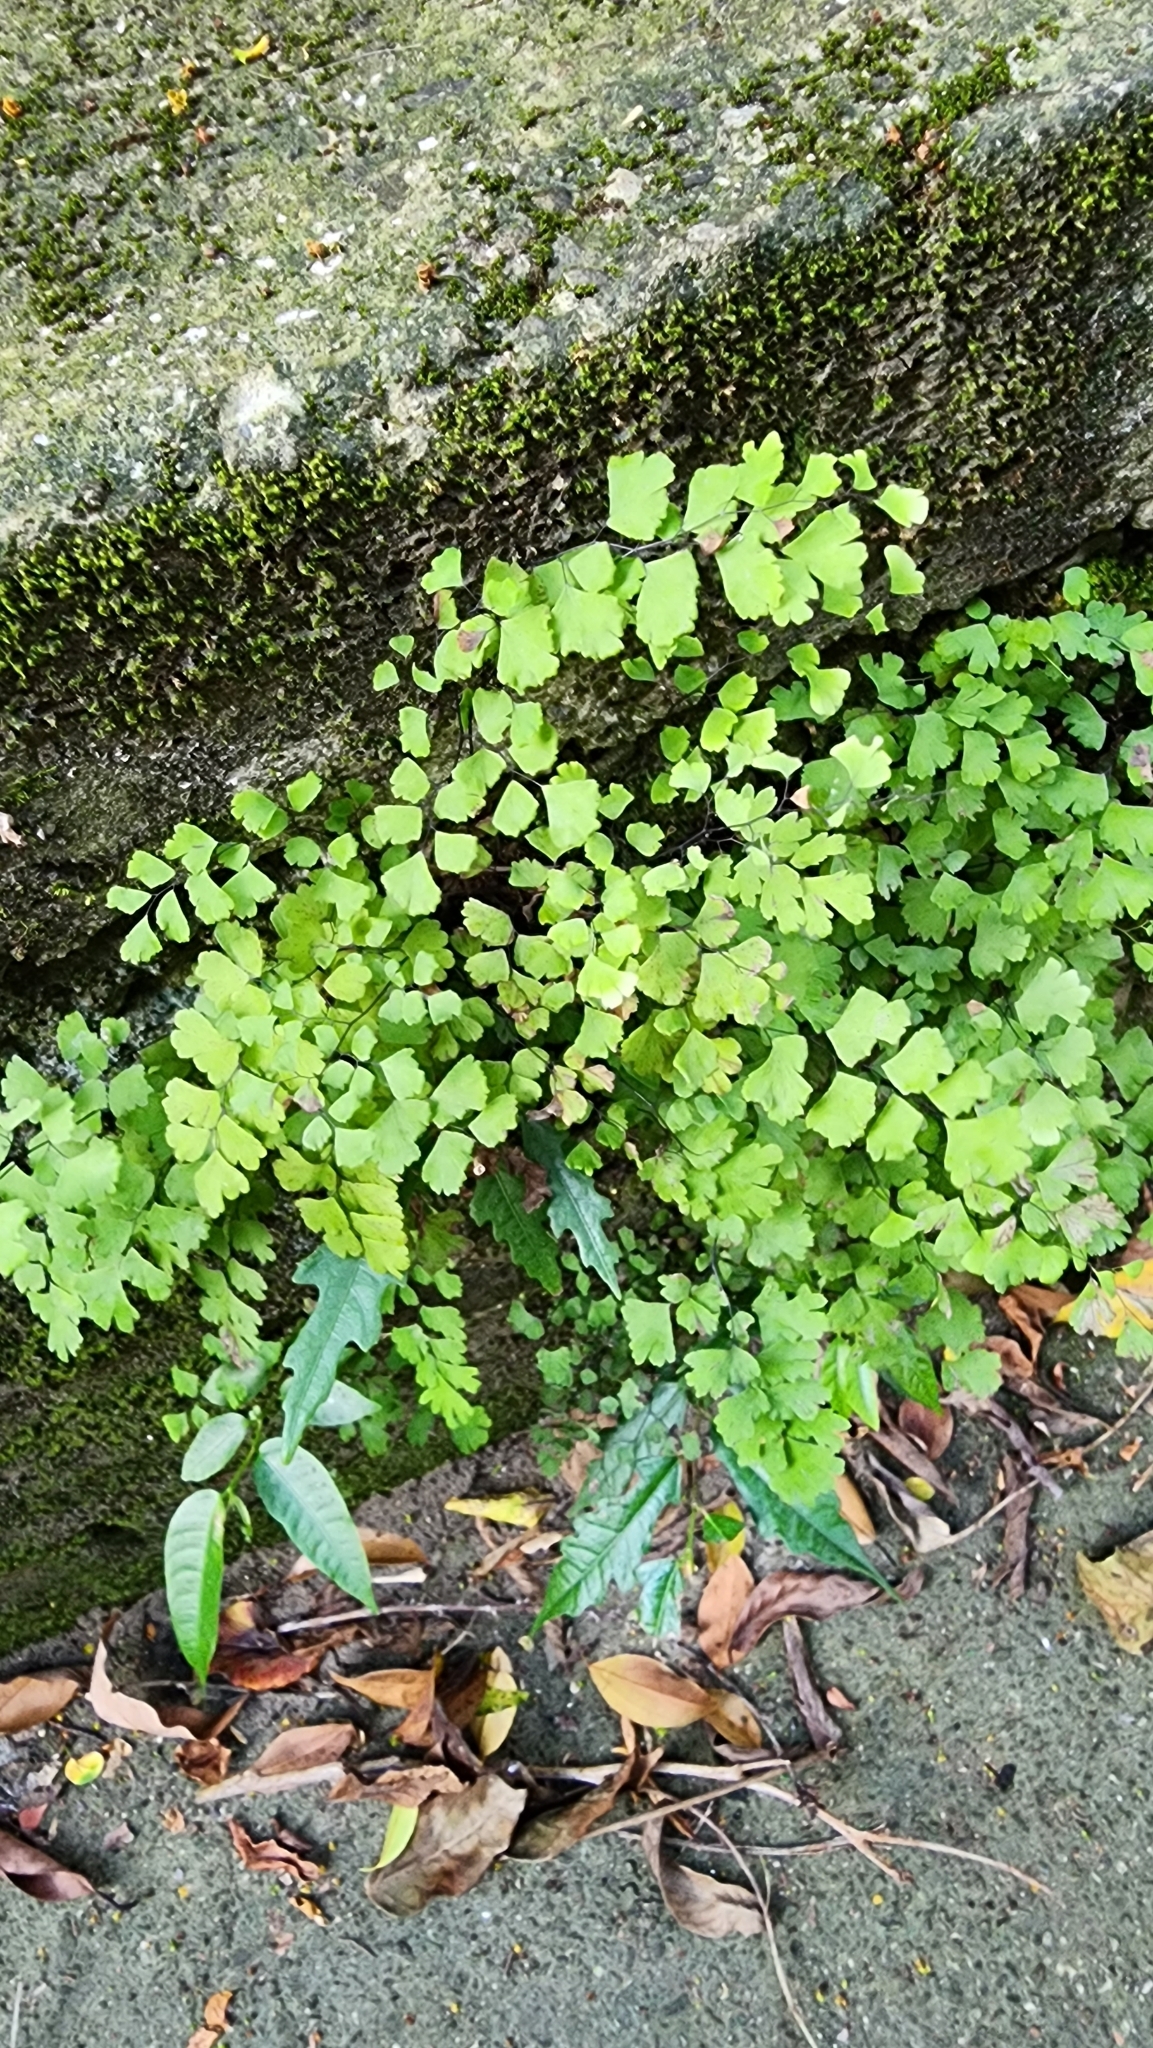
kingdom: Plantae
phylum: Tracheophyta
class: Polypodiopsida
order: Polypodiales
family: Pteridaceae
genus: Adiantum
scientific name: Adiantum capillus-veneris
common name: Maidenhair fern
